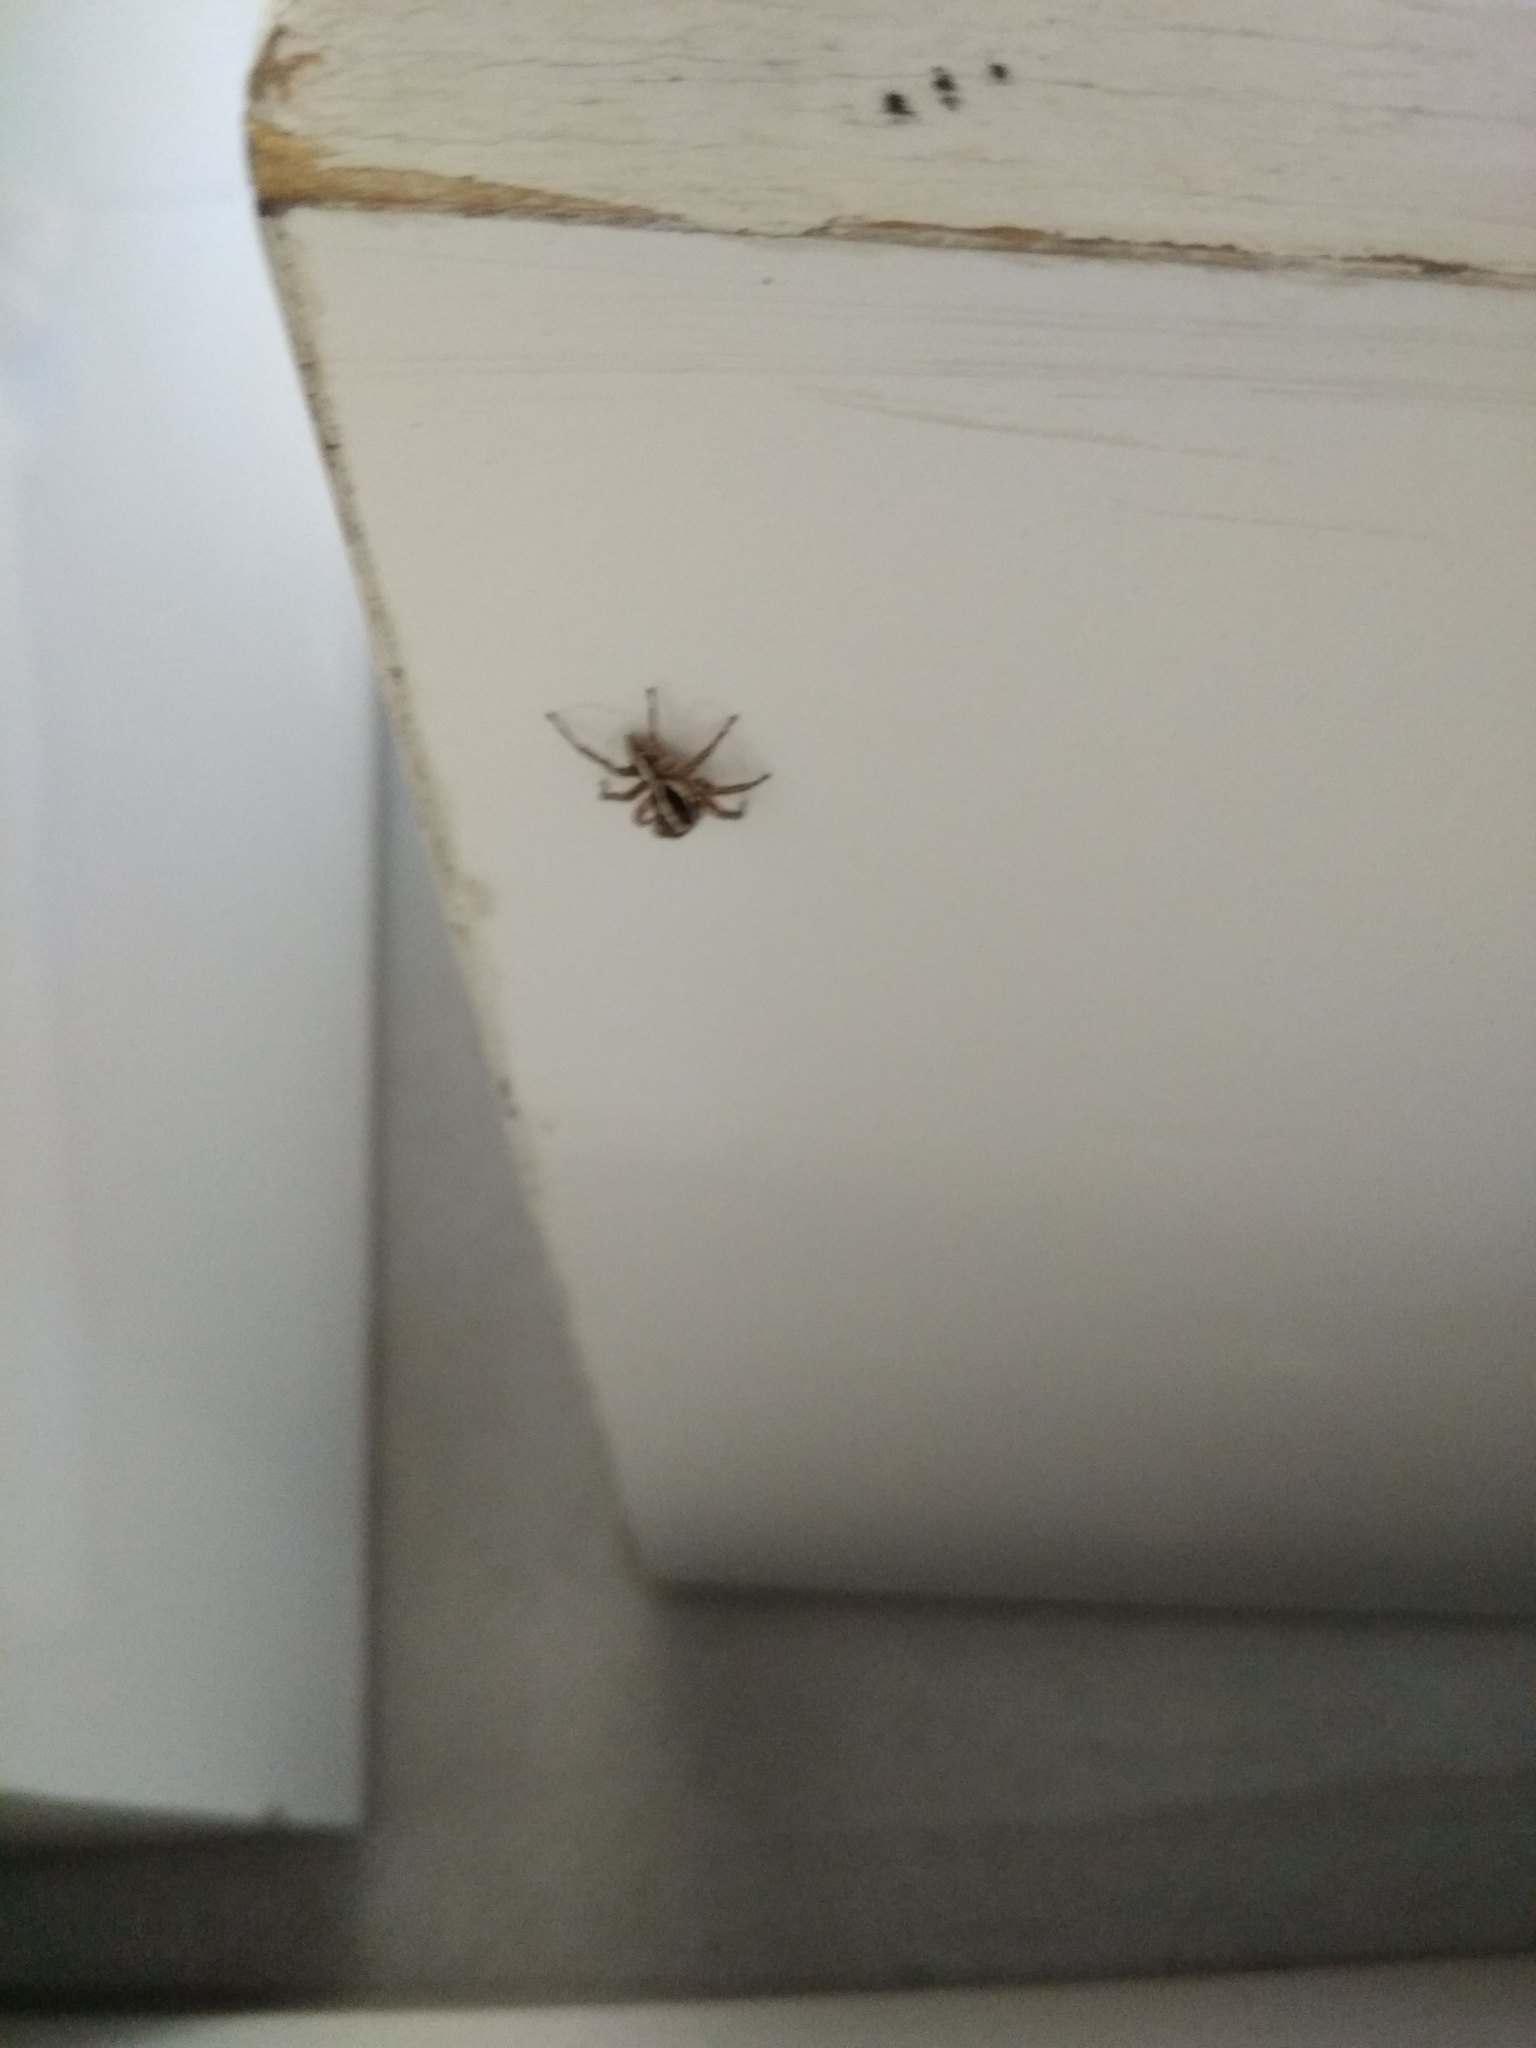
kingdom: Animalia
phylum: Arthropoda
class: Arachnida
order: Araneae
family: Salticidae
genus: Plexippus
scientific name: Plexippus paykulli
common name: Pantropical jumper
